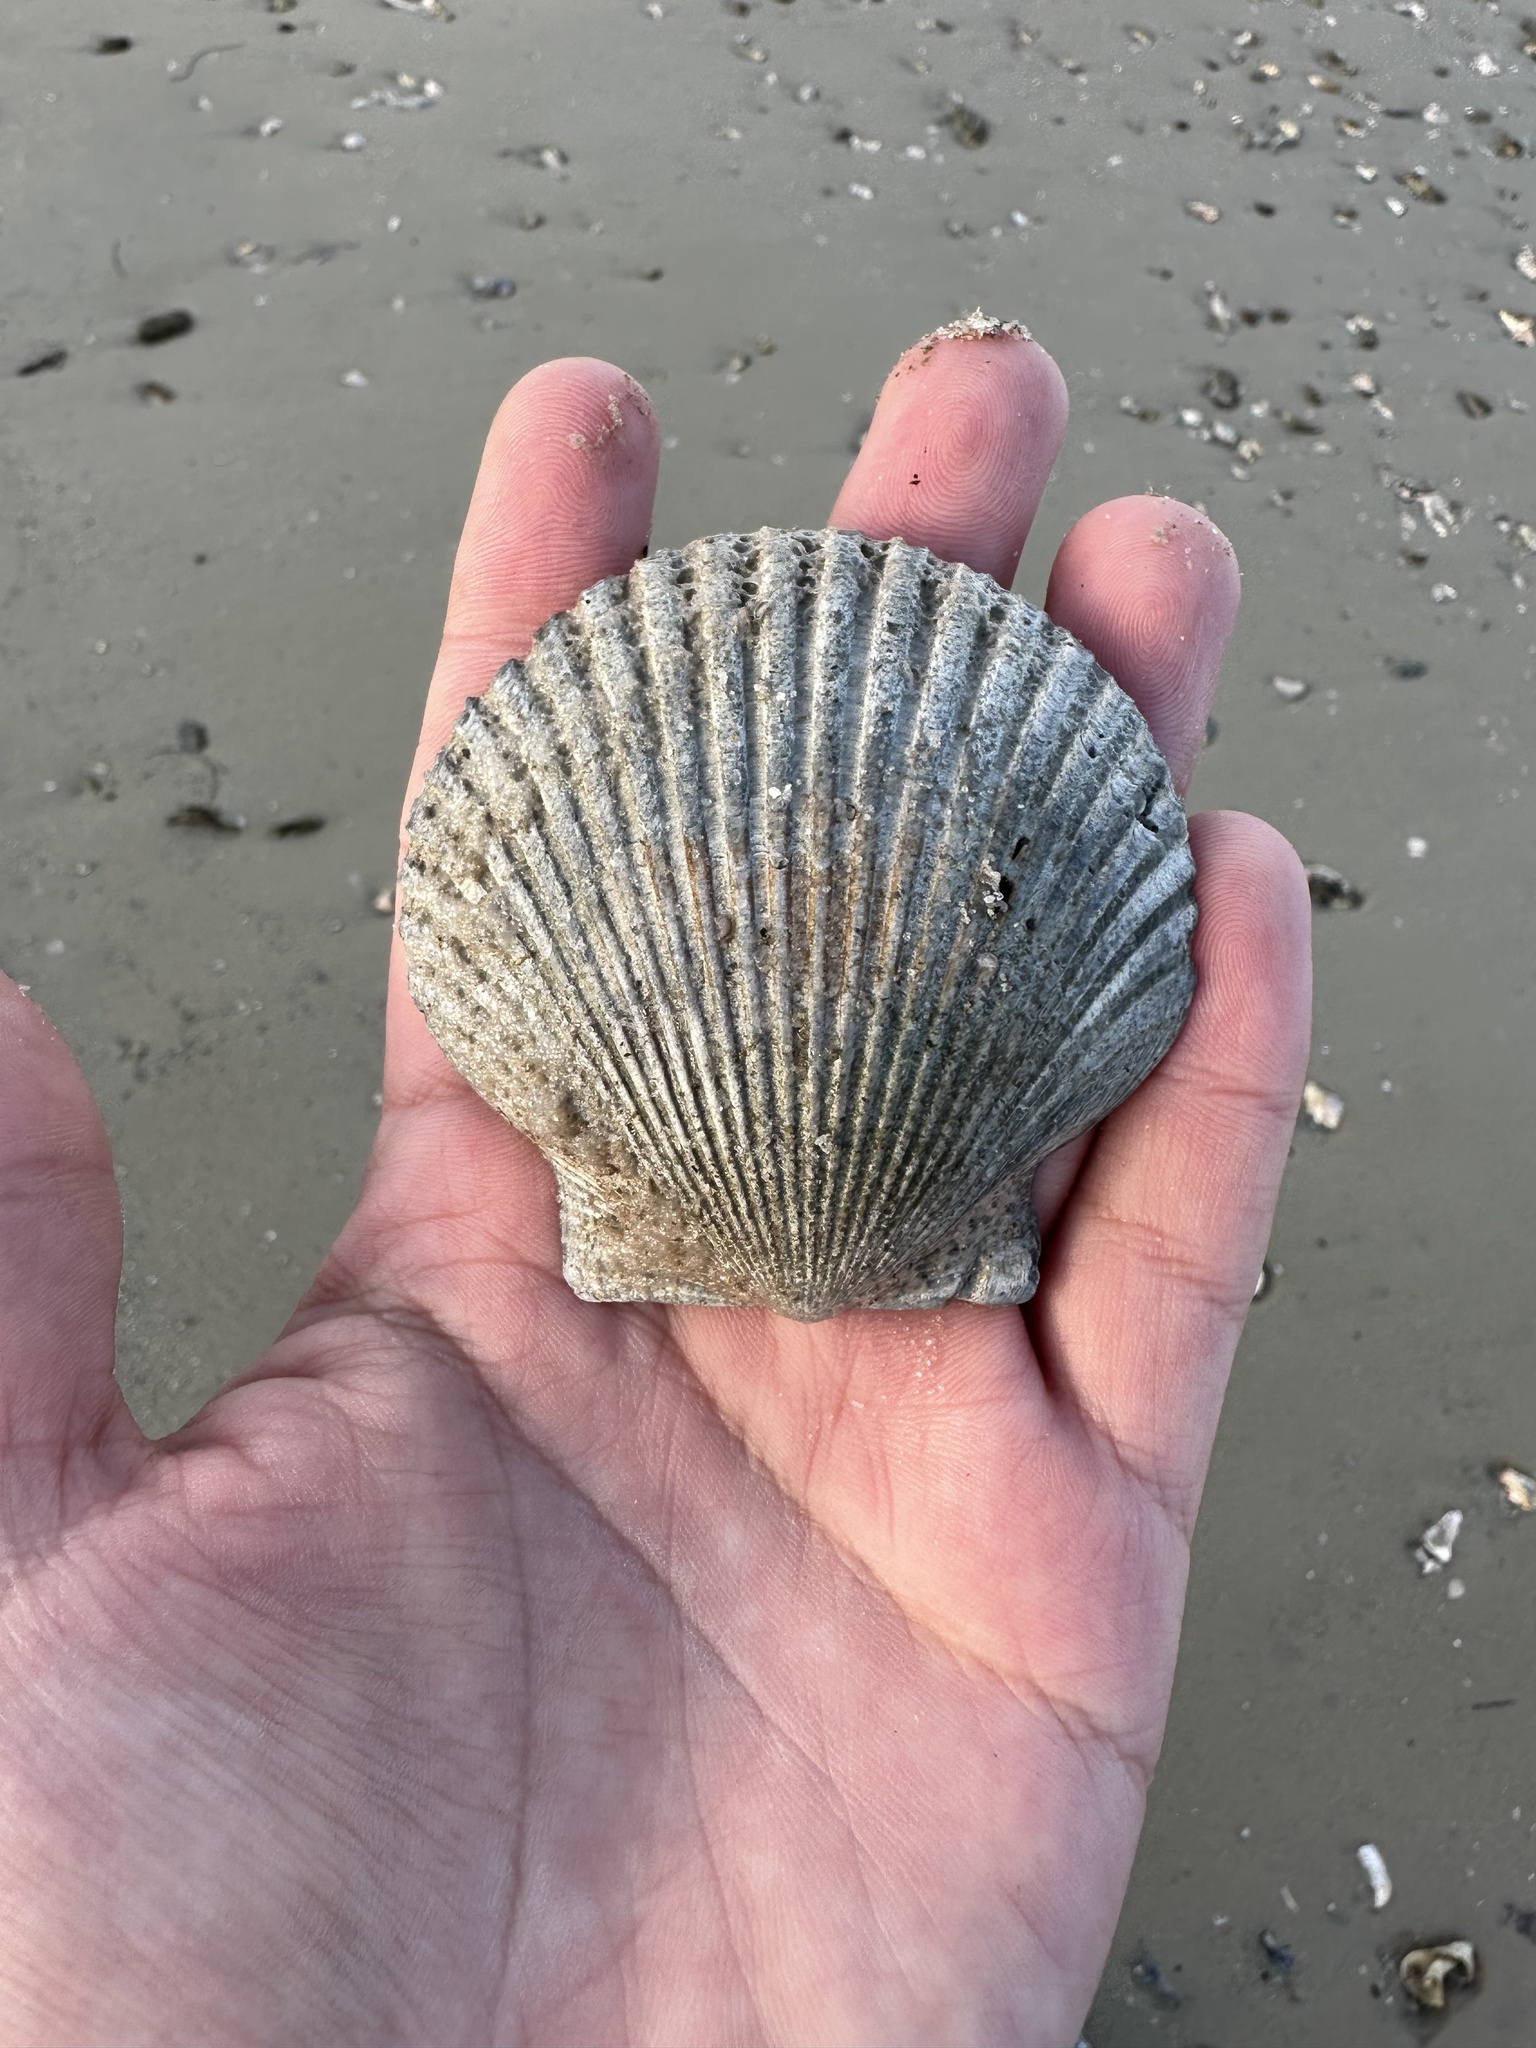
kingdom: Animalia
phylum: Mollusca
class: Bivalvia
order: Pectinida
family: Pectinidae
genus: Argopecten
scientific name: Argopecten irradians
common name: Atlantic bay scallop
